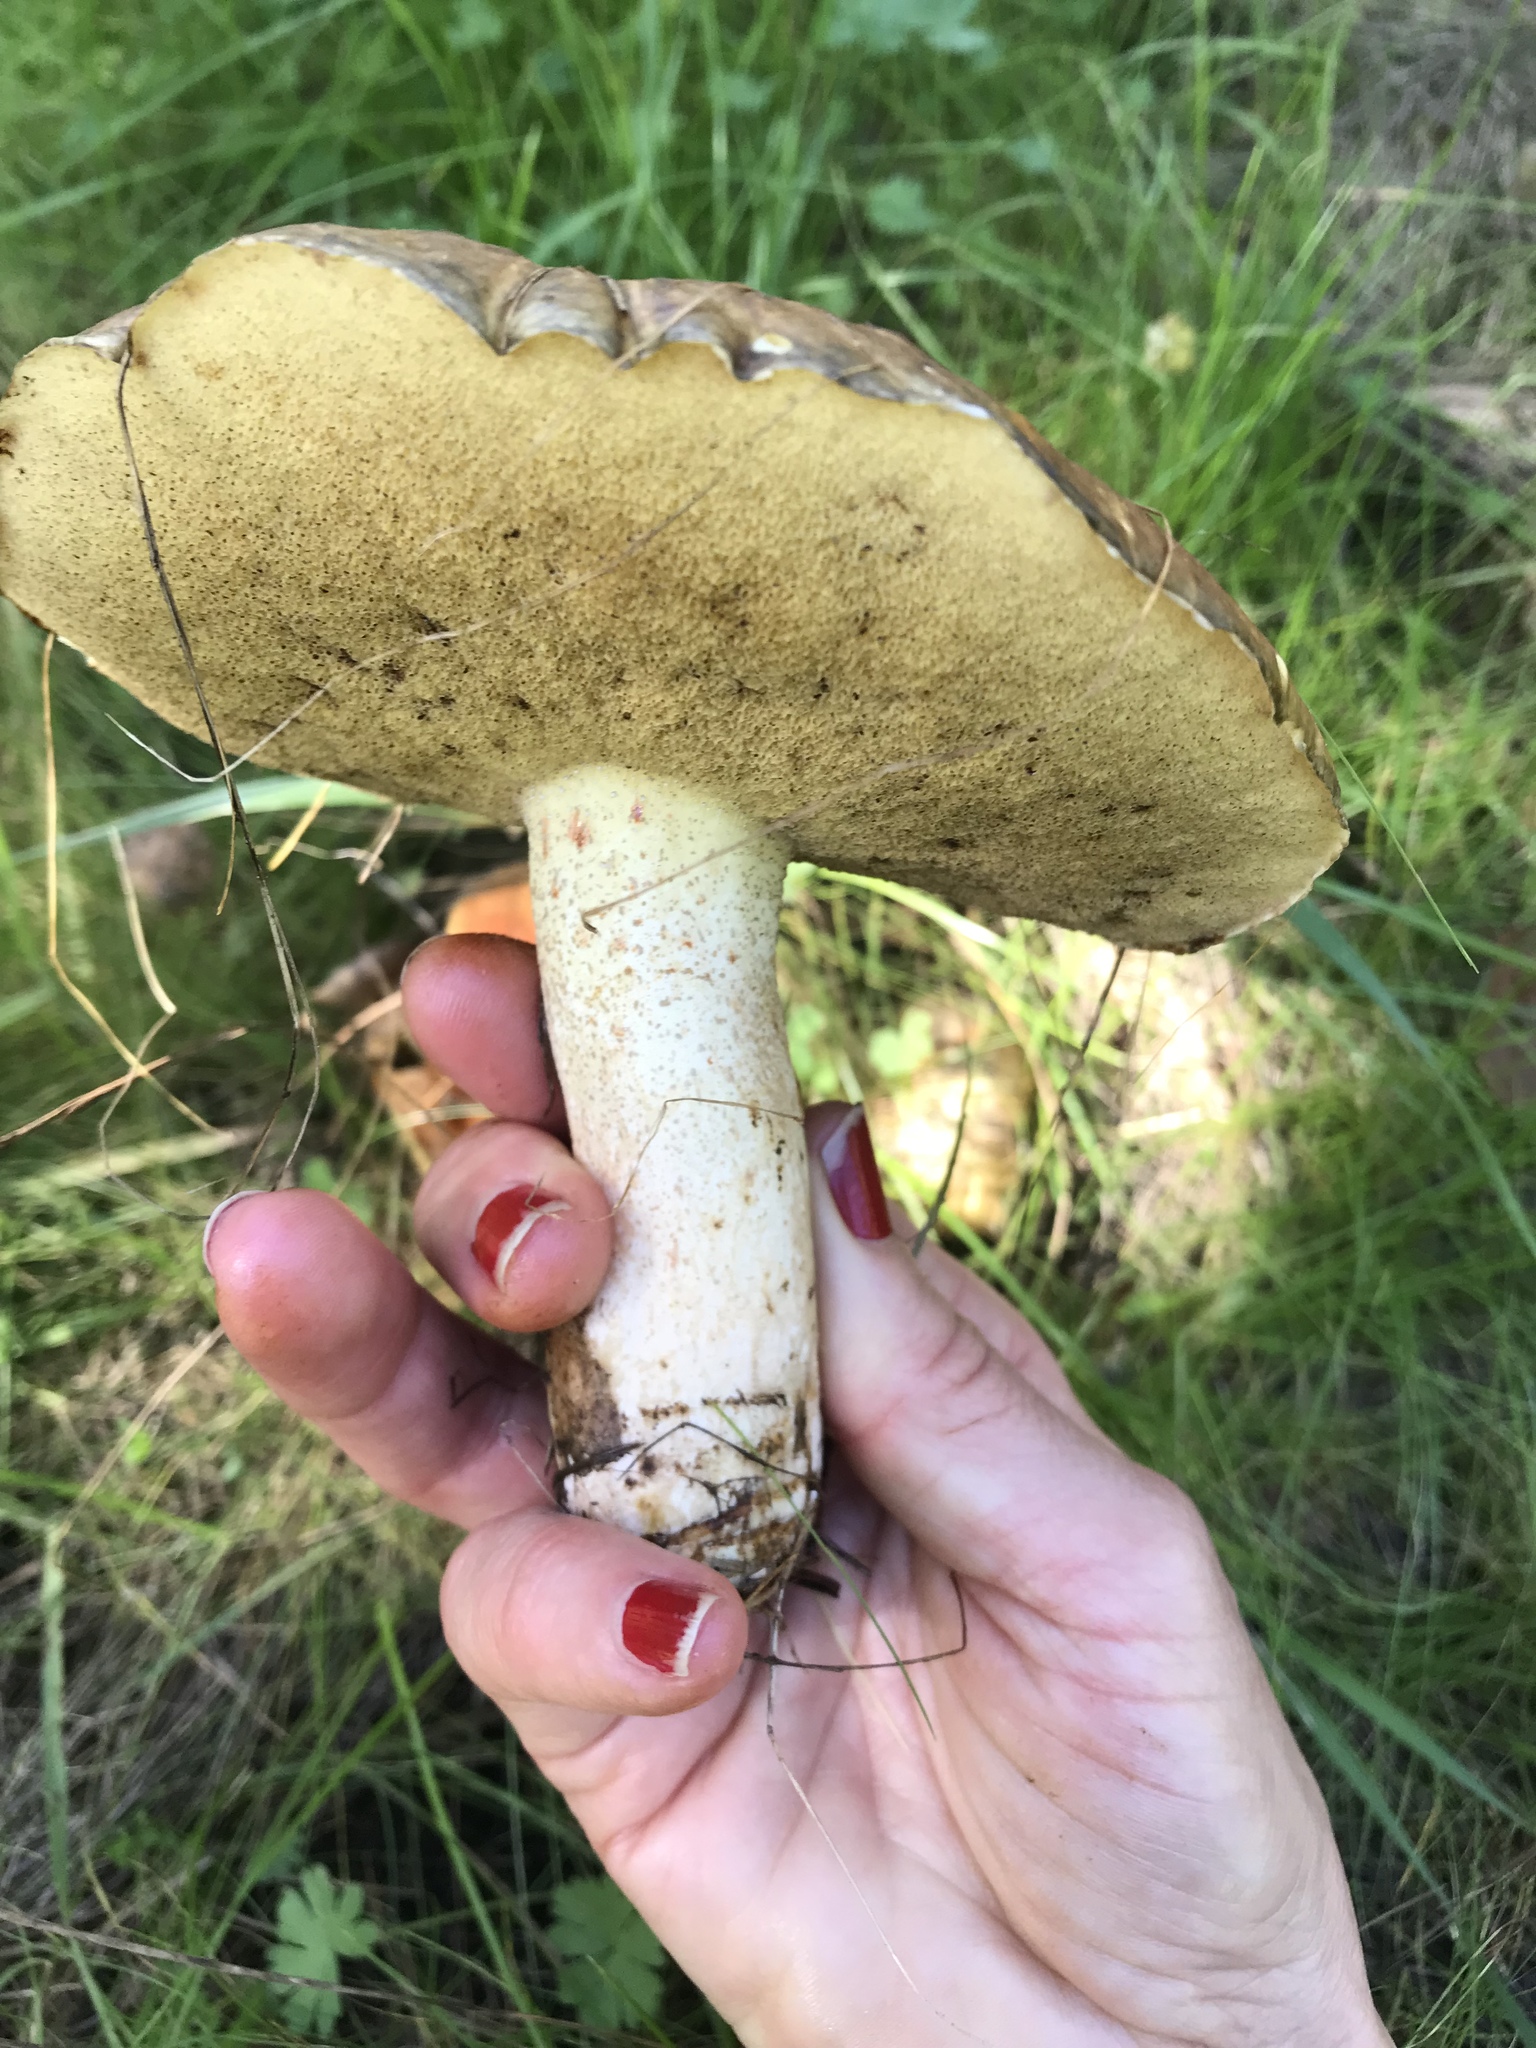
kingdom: Fungi
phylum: Basidiomycota
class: Agaricomycetes
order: Boletales
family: Suillaceae
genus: Suillus
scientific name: Suillus pungens
